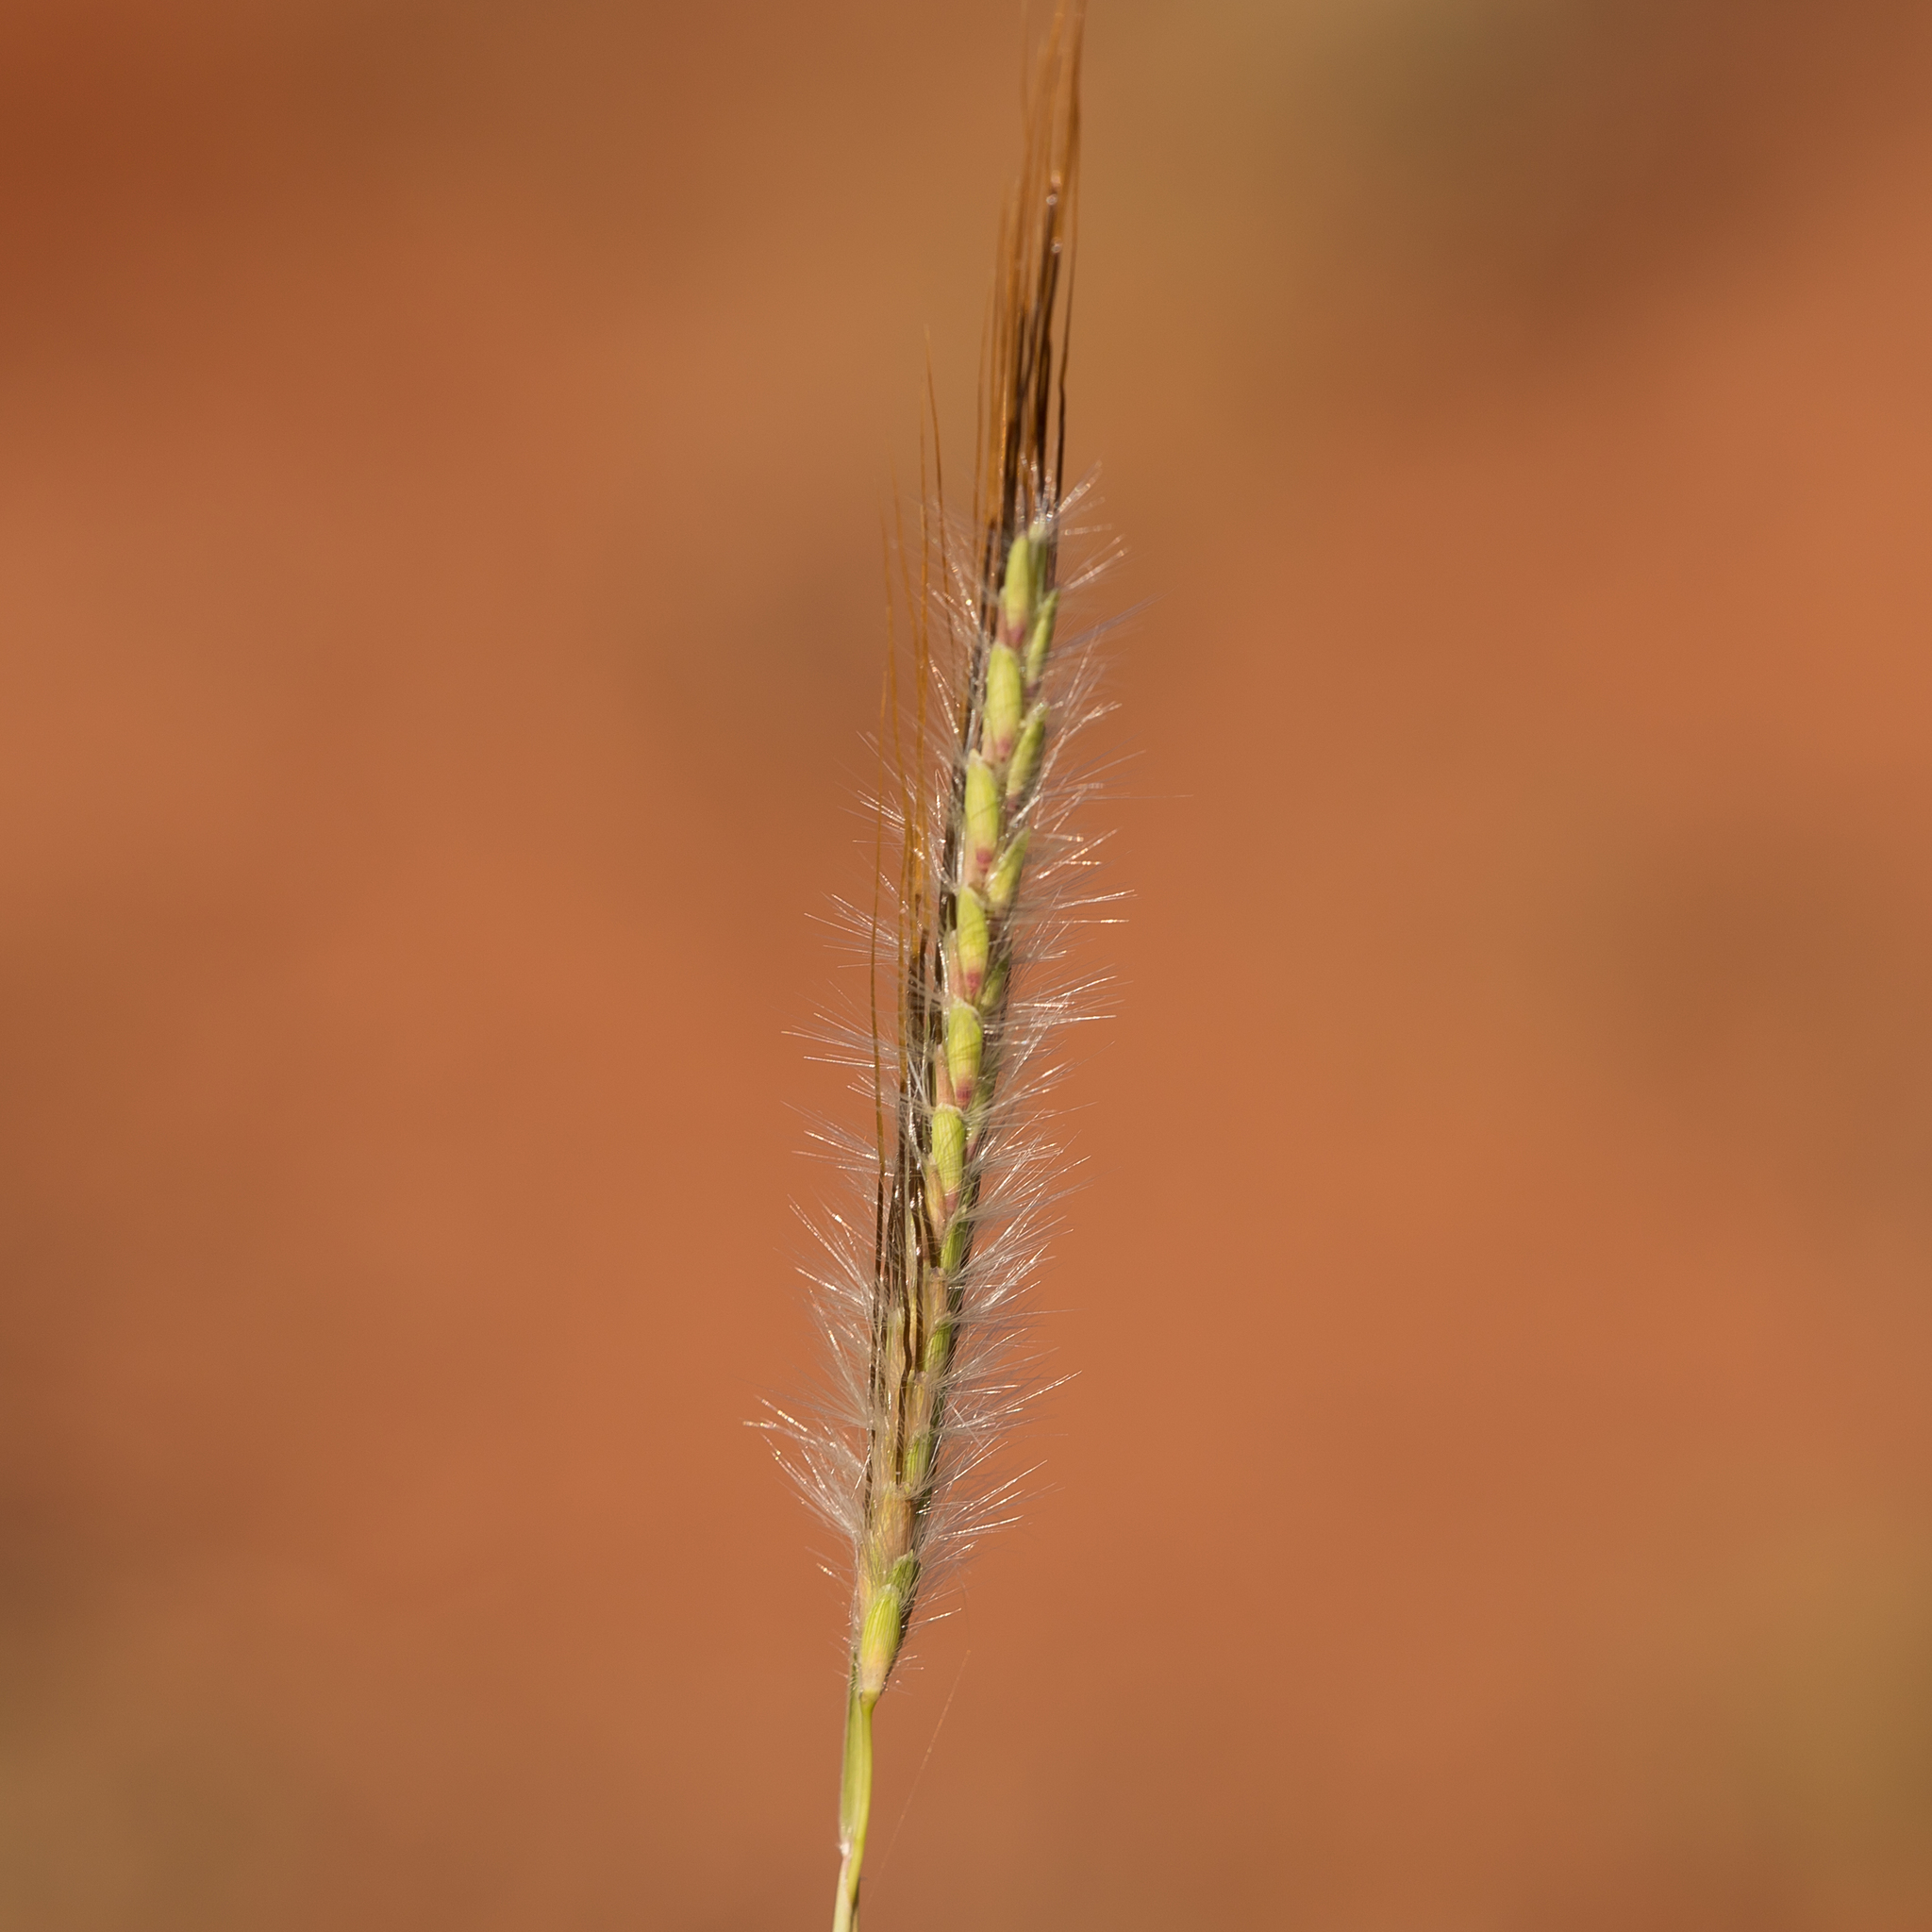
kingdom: Plantae
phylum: Tracheophyta
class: Liliopsida
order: Poales
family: Poaceae
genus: Dichanthium
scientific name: Dichanthium sericeum
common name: Silky bluestem
